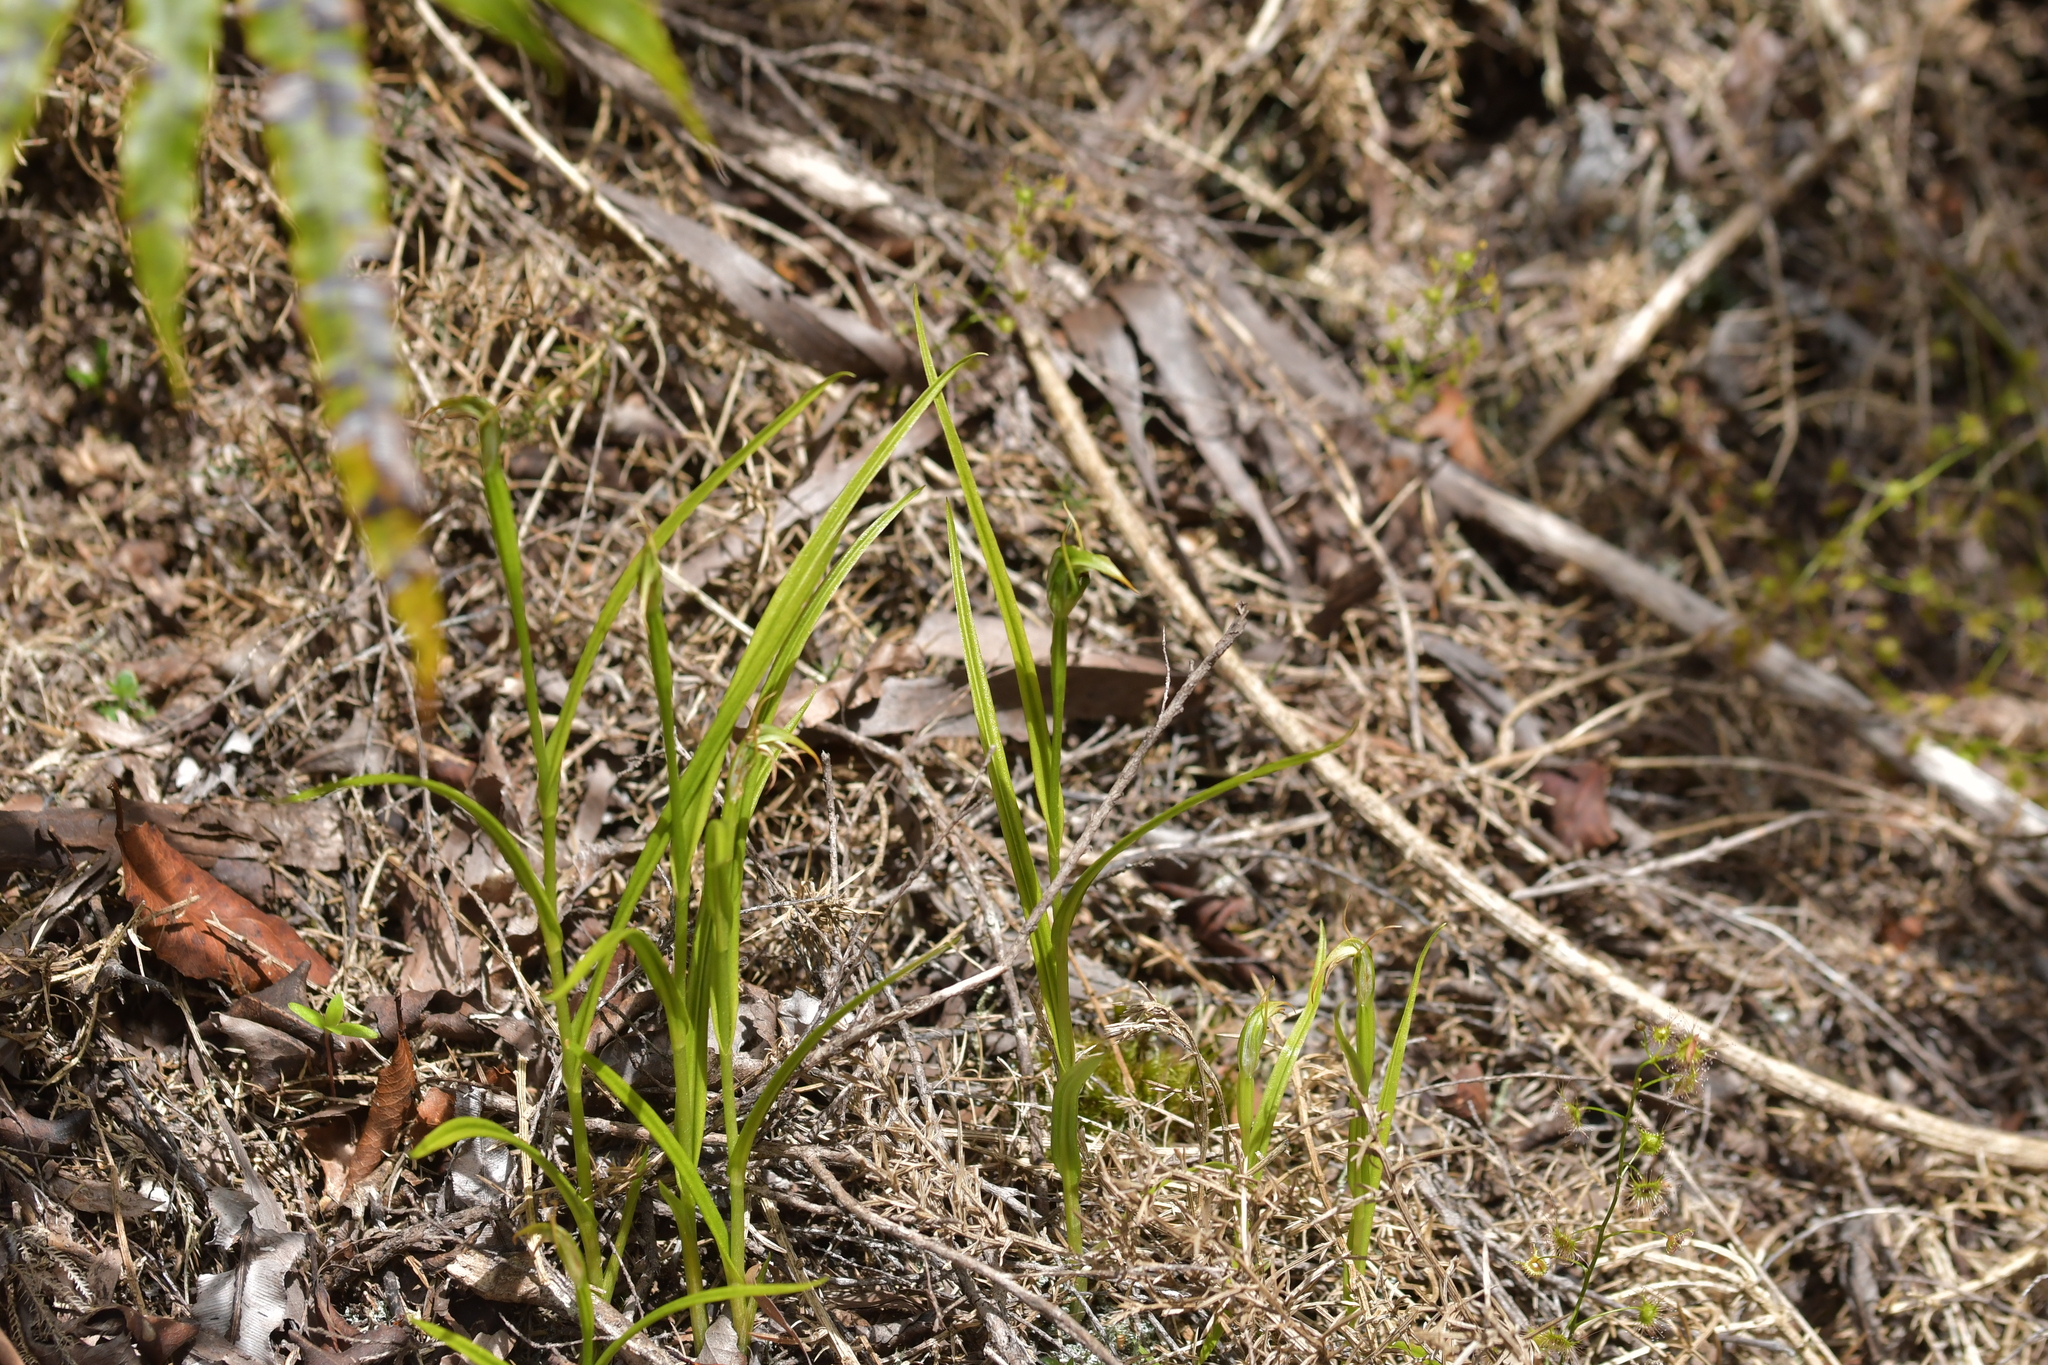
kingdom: Plantae
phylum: Tracheophyta
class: Liliopsida
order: Asparagales
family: Orchidaceae
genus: Pterostylis
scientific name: Pterostylis graminea
